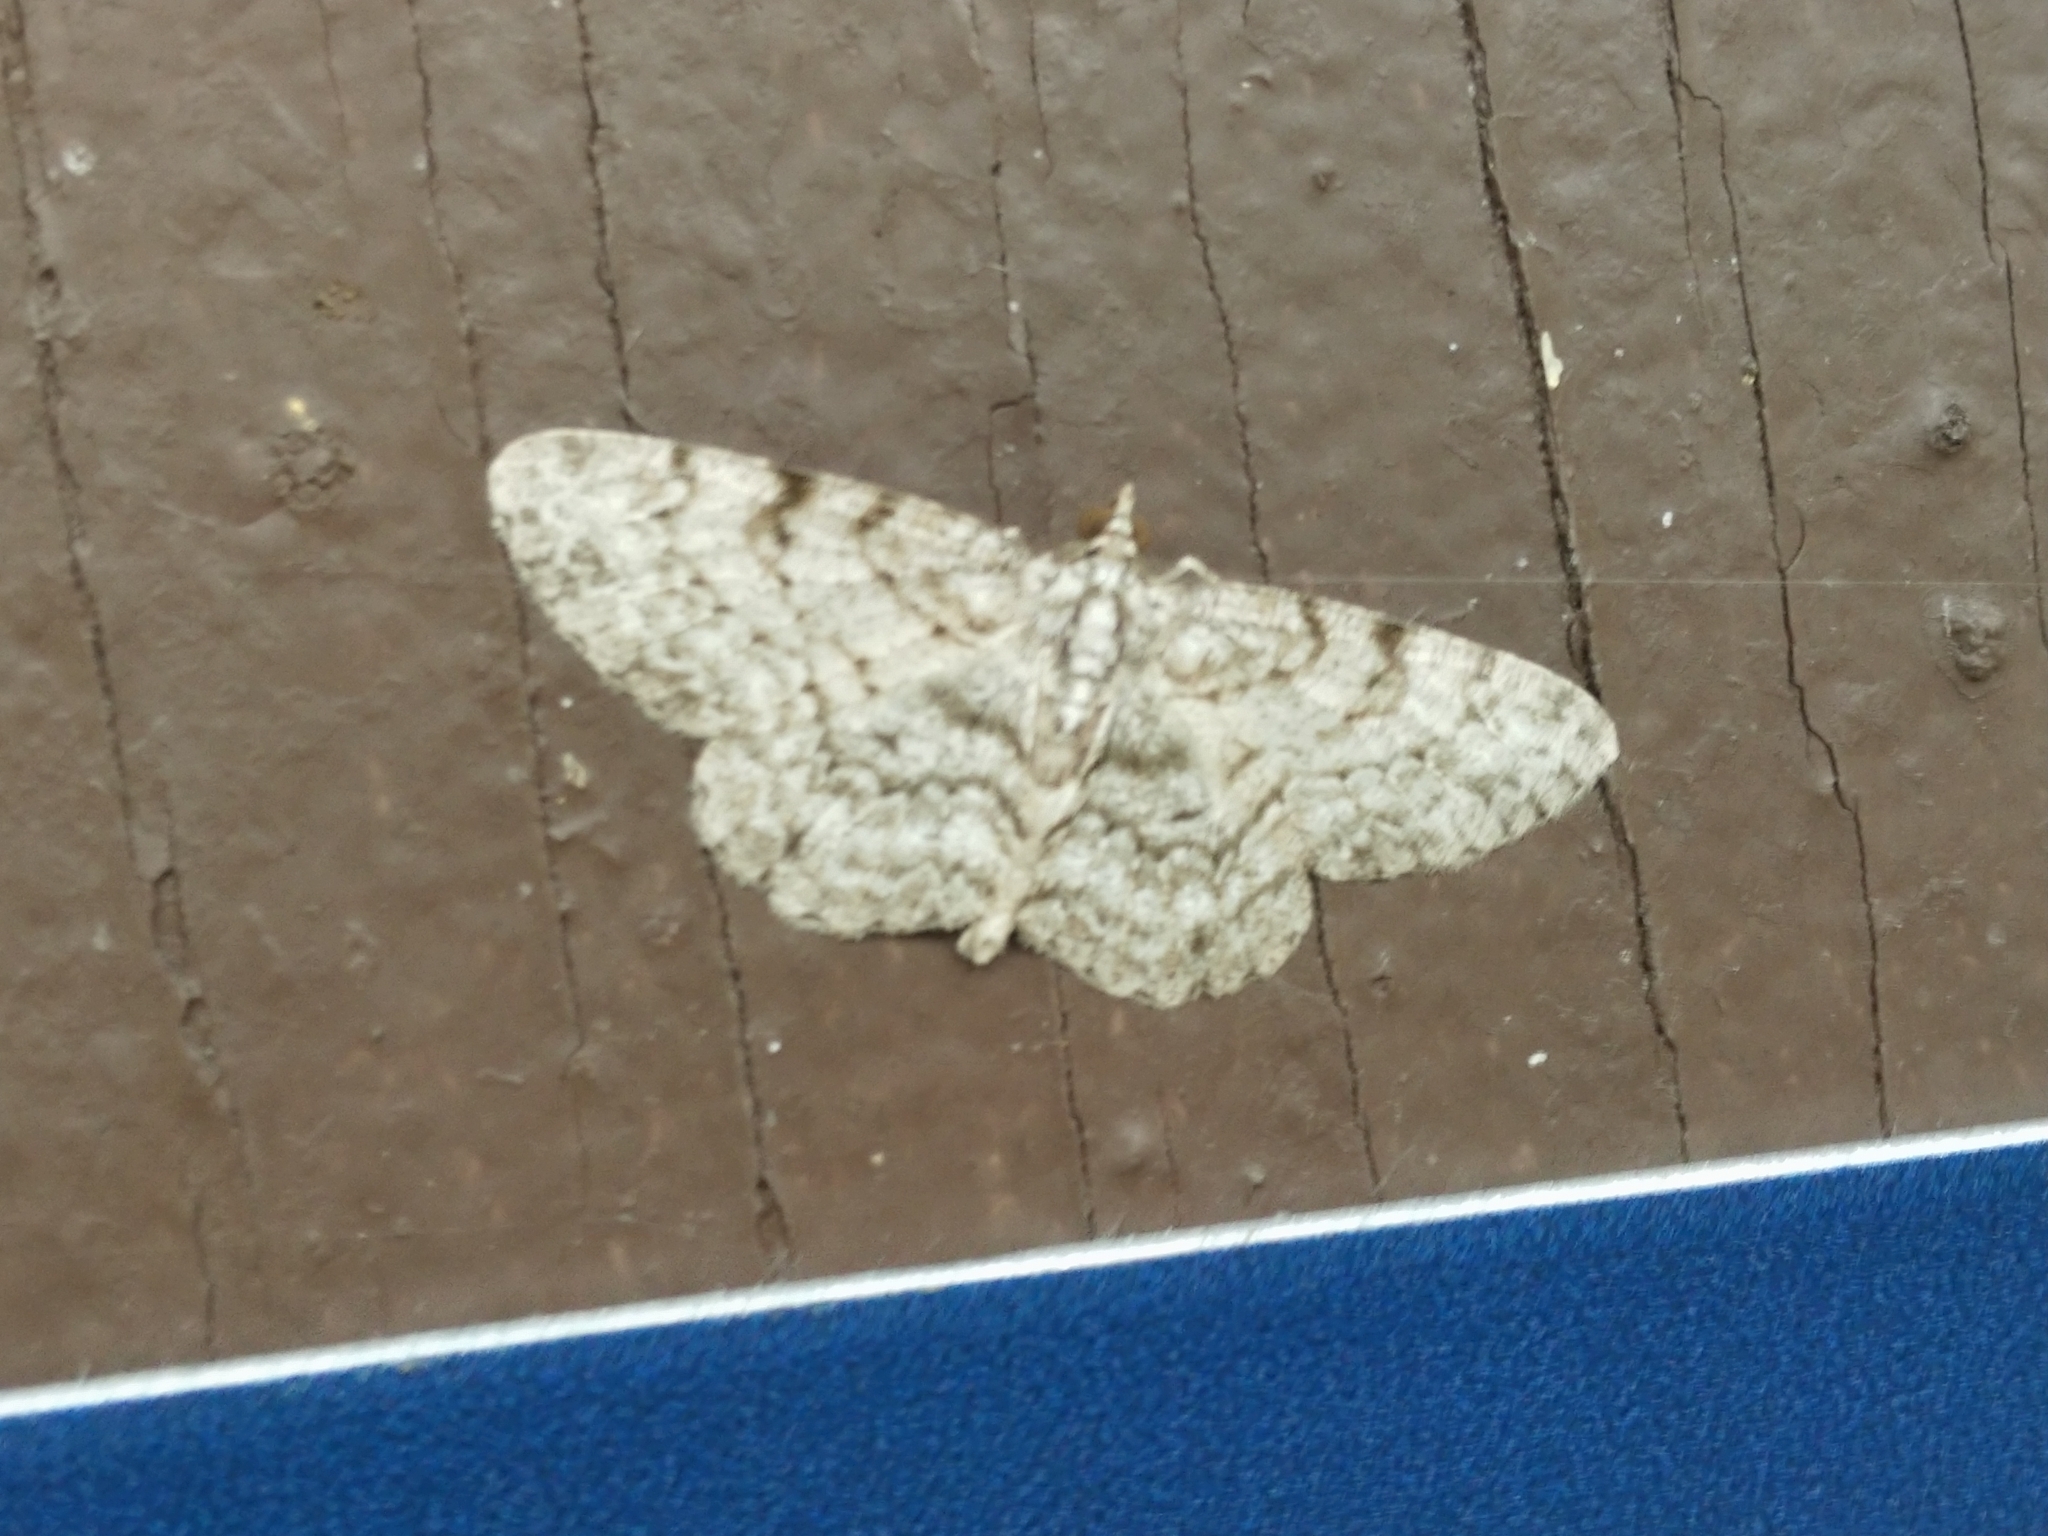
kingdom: Animalia
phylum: Arthropoda
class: Insecta
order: Lepidoptera
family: Geometridae
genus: Iridopsis
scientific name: Iridopsis ephyraria
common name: Pale-winged gray
